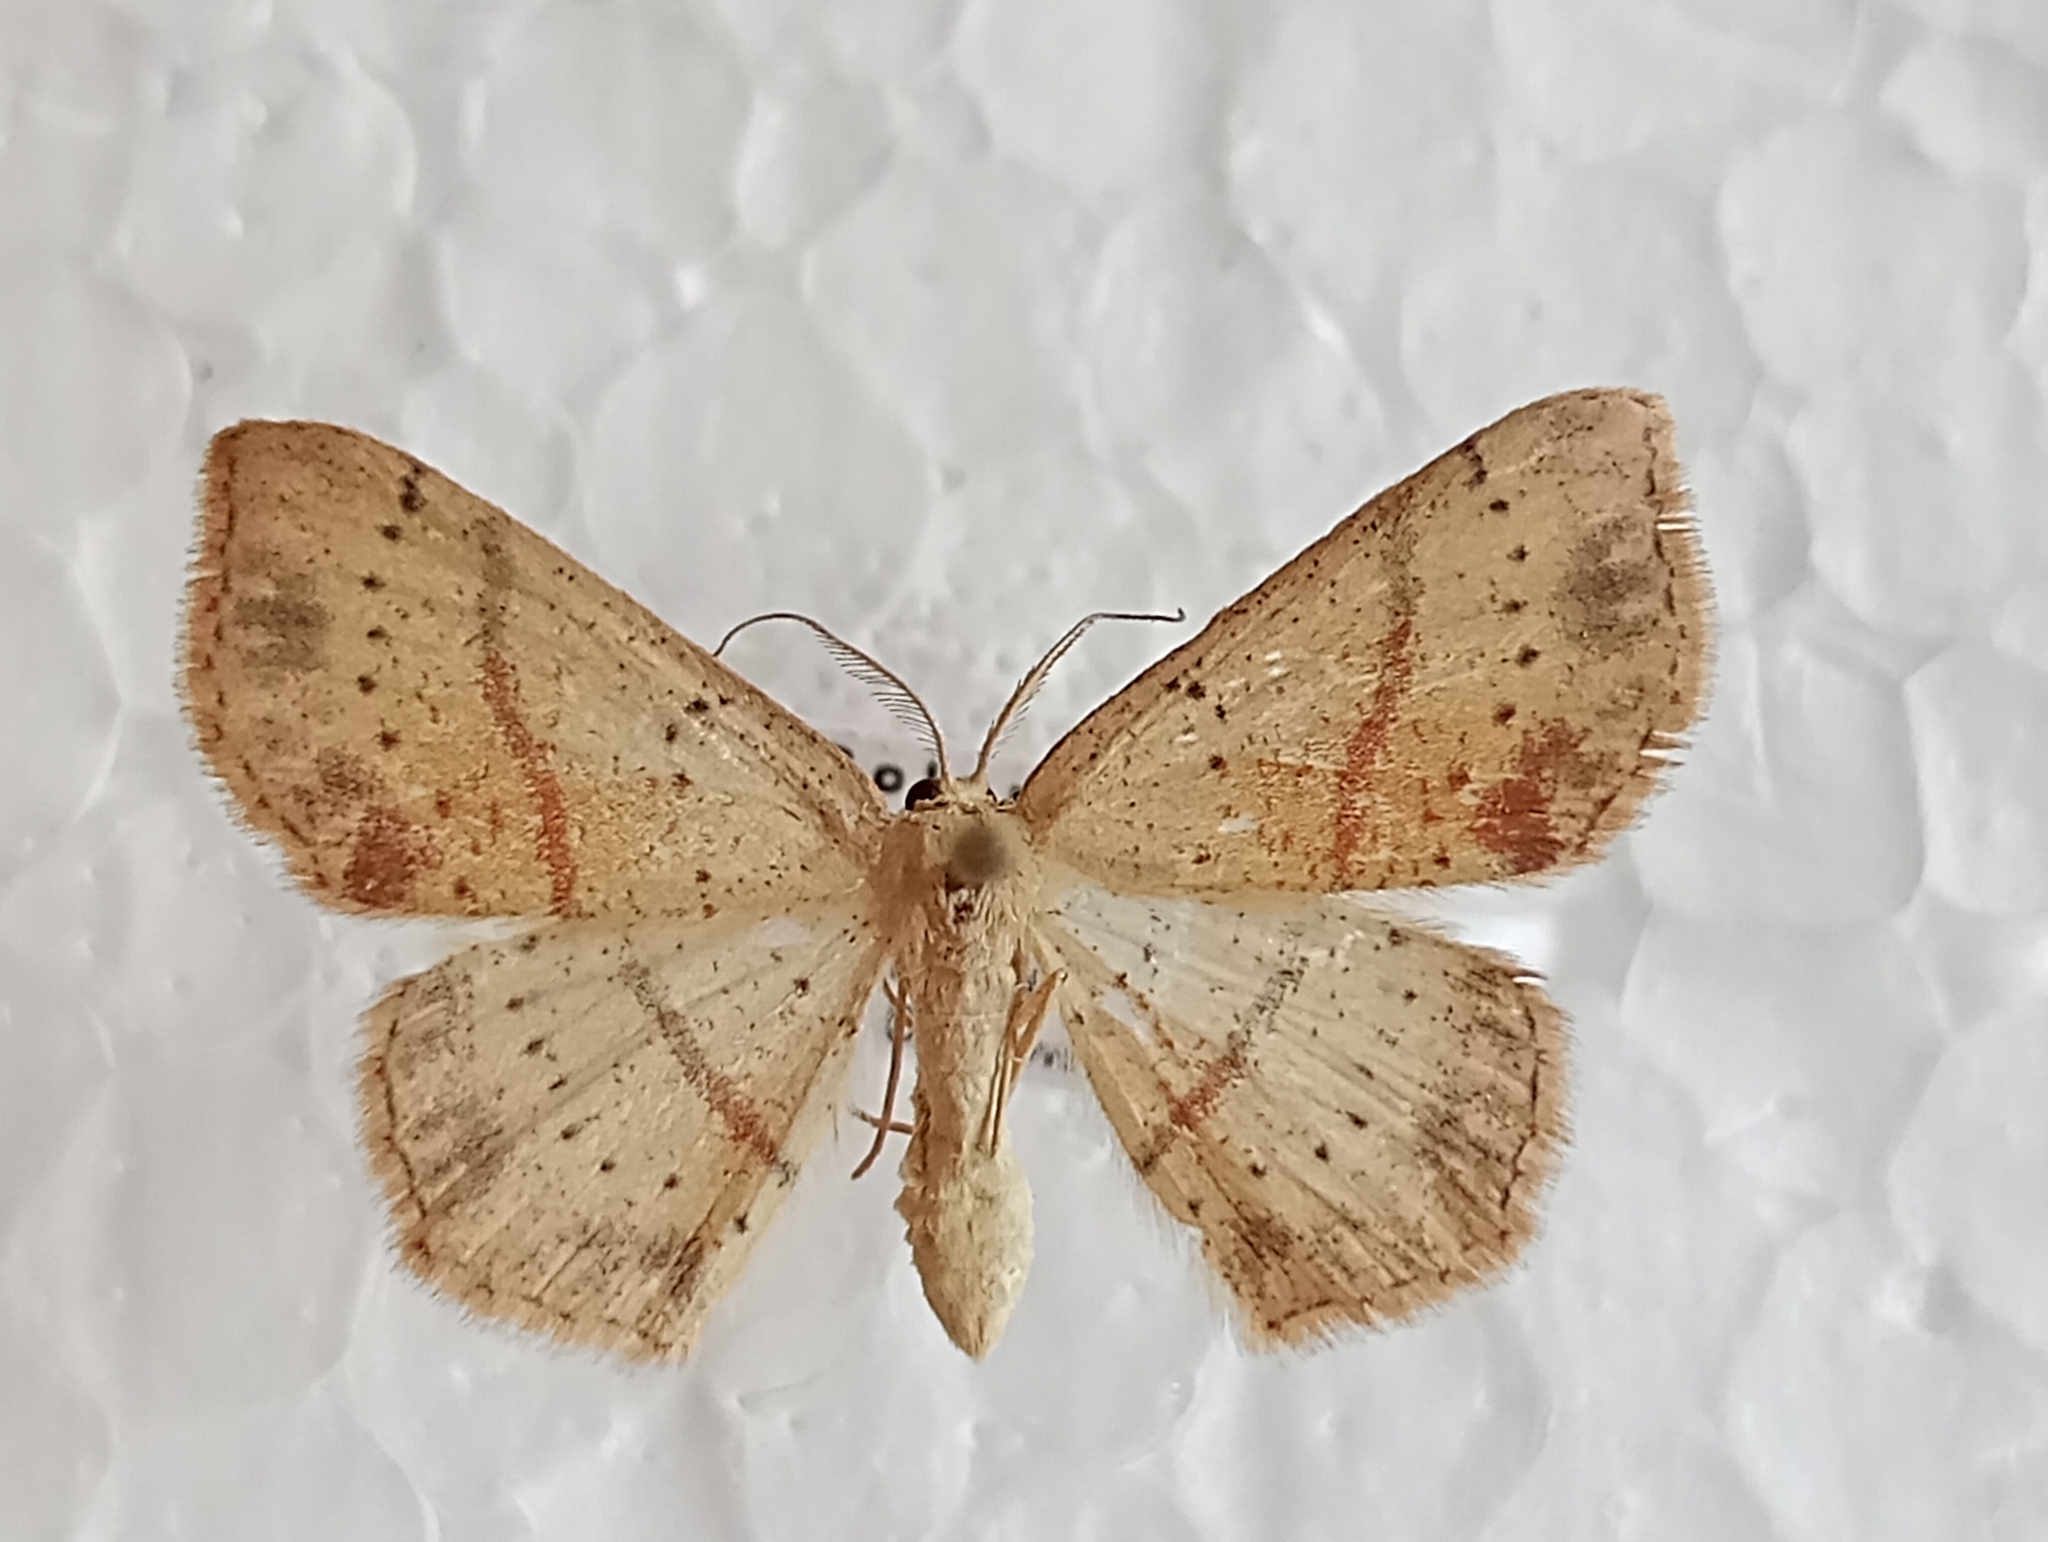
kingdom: Animalia
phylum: Arthropoda
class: Insecta
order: Lepidoptera
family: Geometridae
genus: Cyclophora
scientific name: Cyclophora punctaria
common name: Maiden's blush
